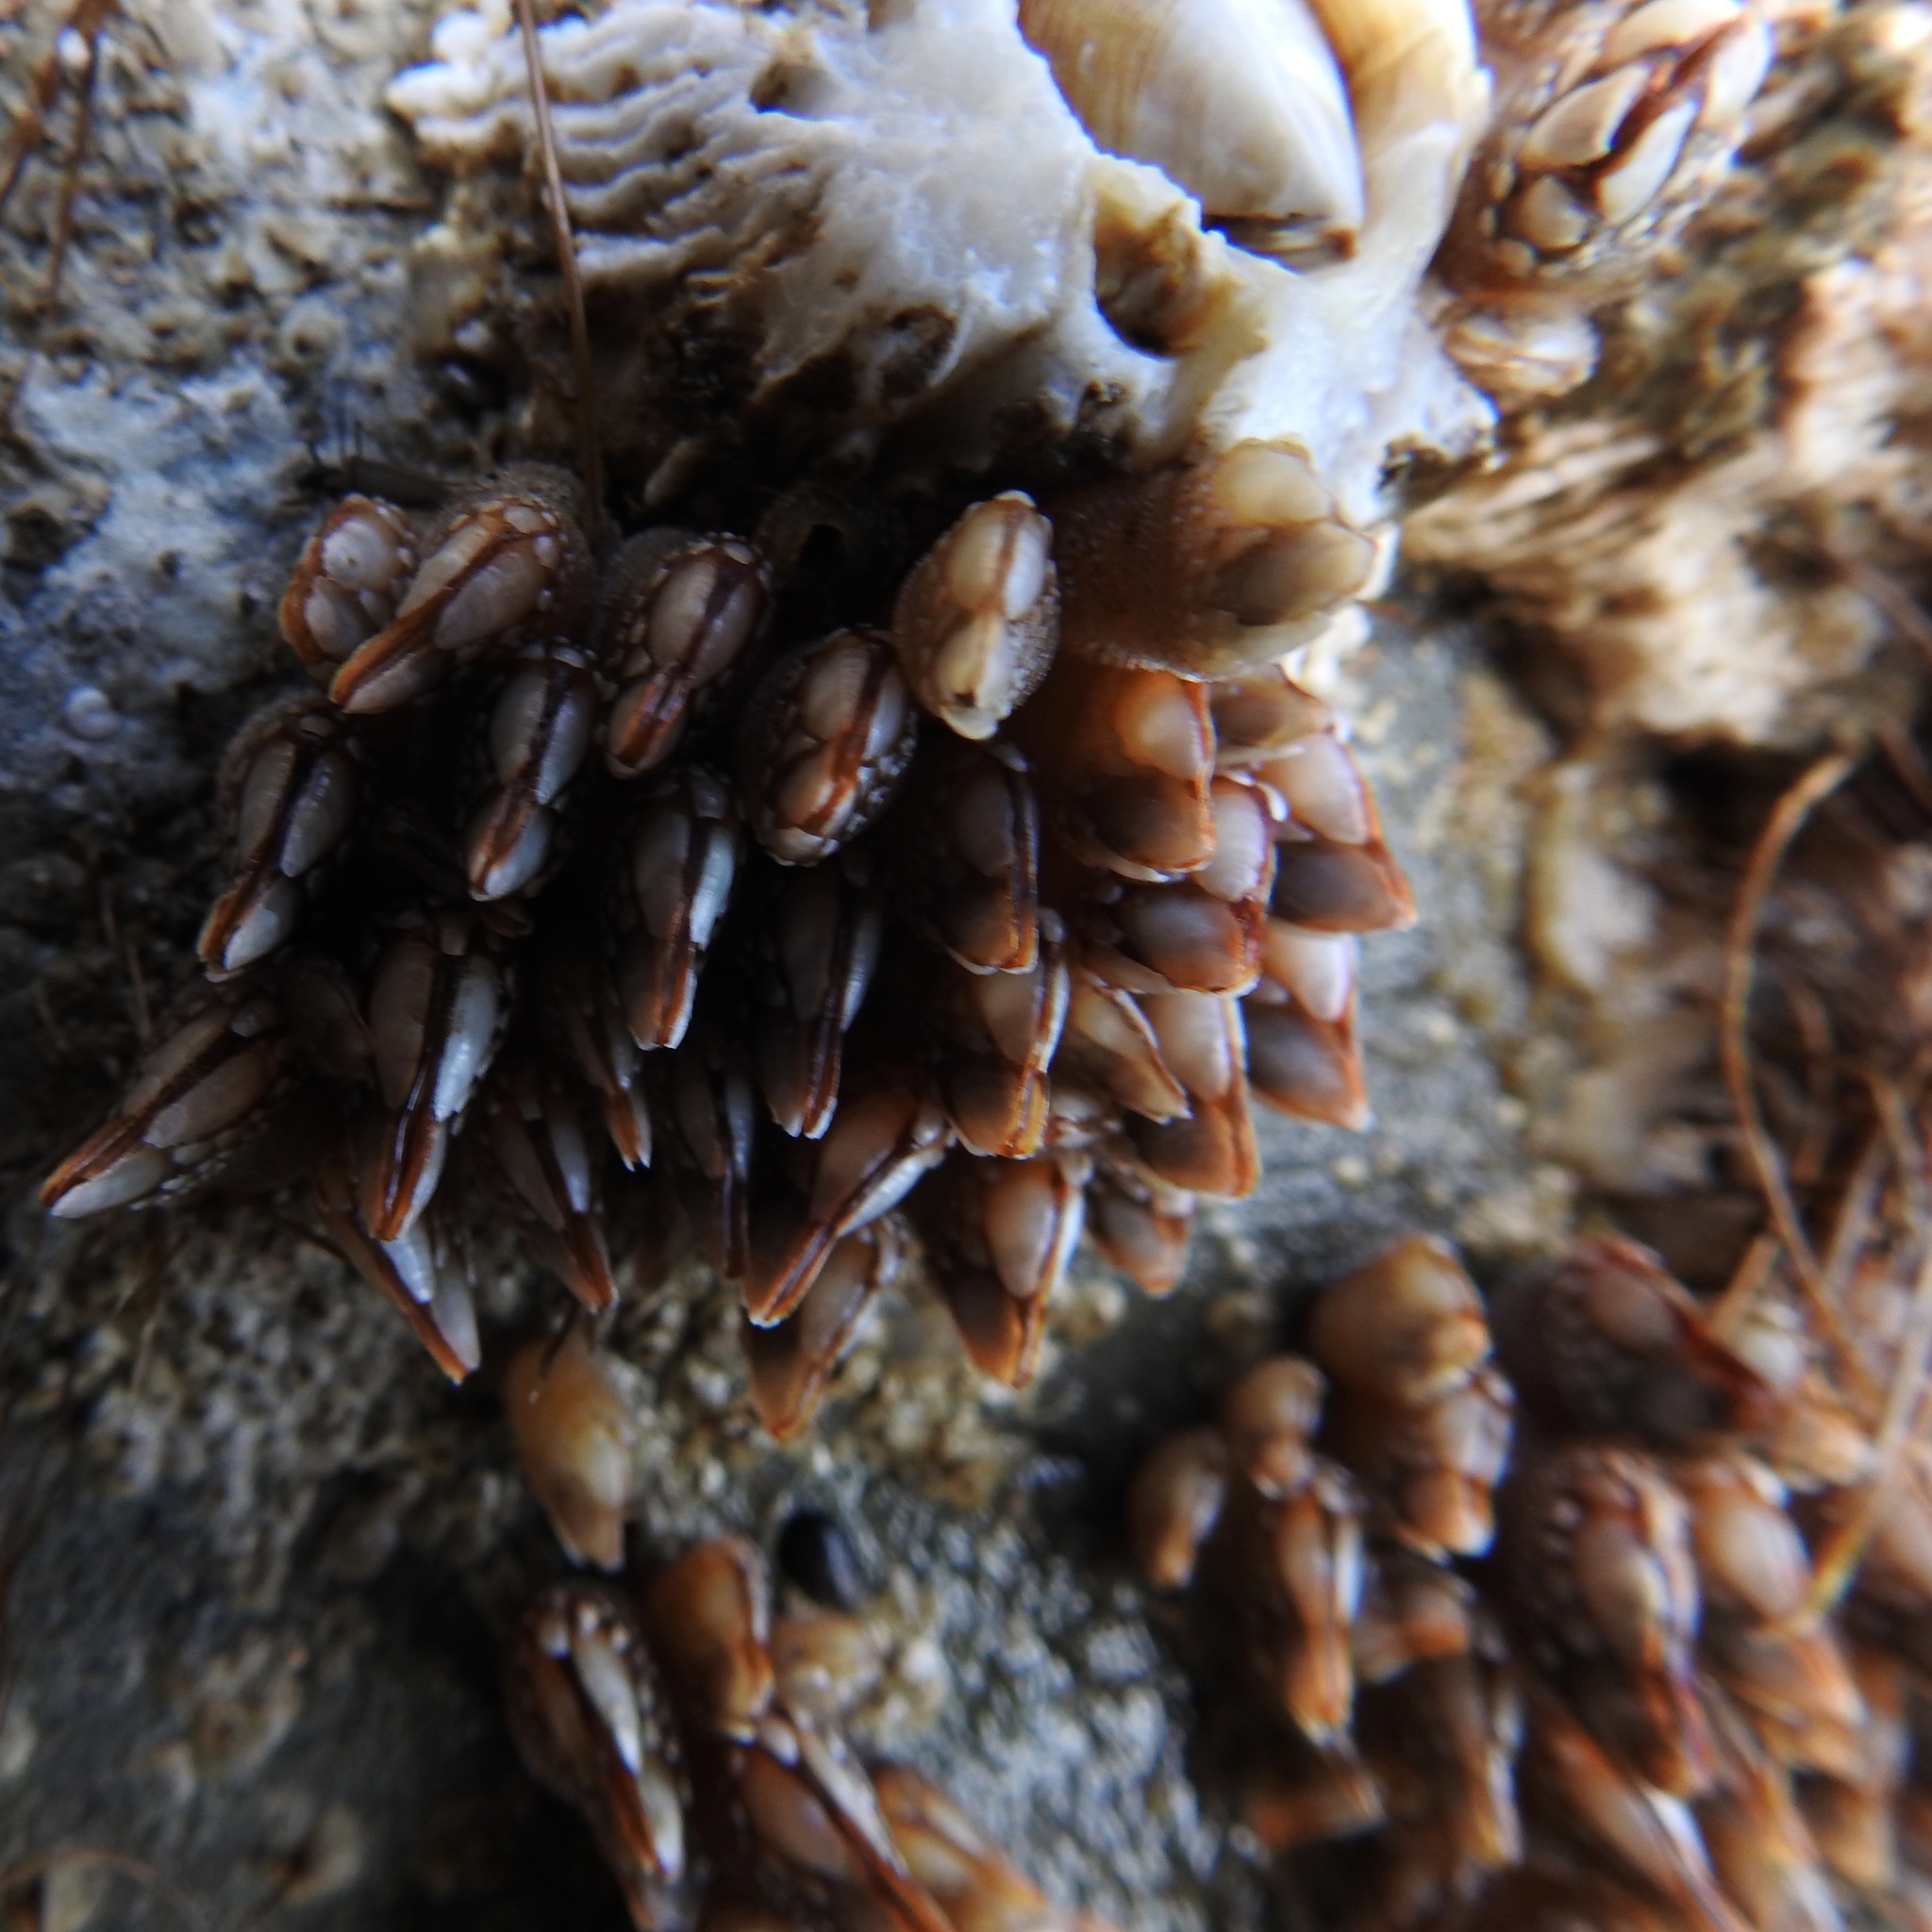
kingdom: Animalia
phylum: Arthropoda
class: Maxillopoda
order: Pedunculata
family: Pollicipedidae
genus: Pollicipes
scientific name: Pollicipes polymerus
